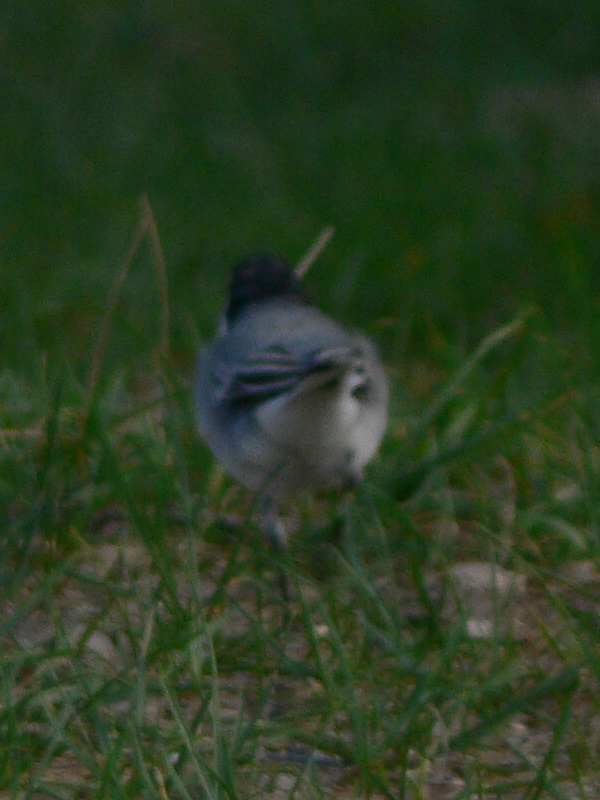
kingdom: Animalia
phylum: Chordata
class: Aves
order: Passeriformes
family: Motacillidae
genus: Motacilla
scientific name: Motacilla alba
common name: White wagtail
